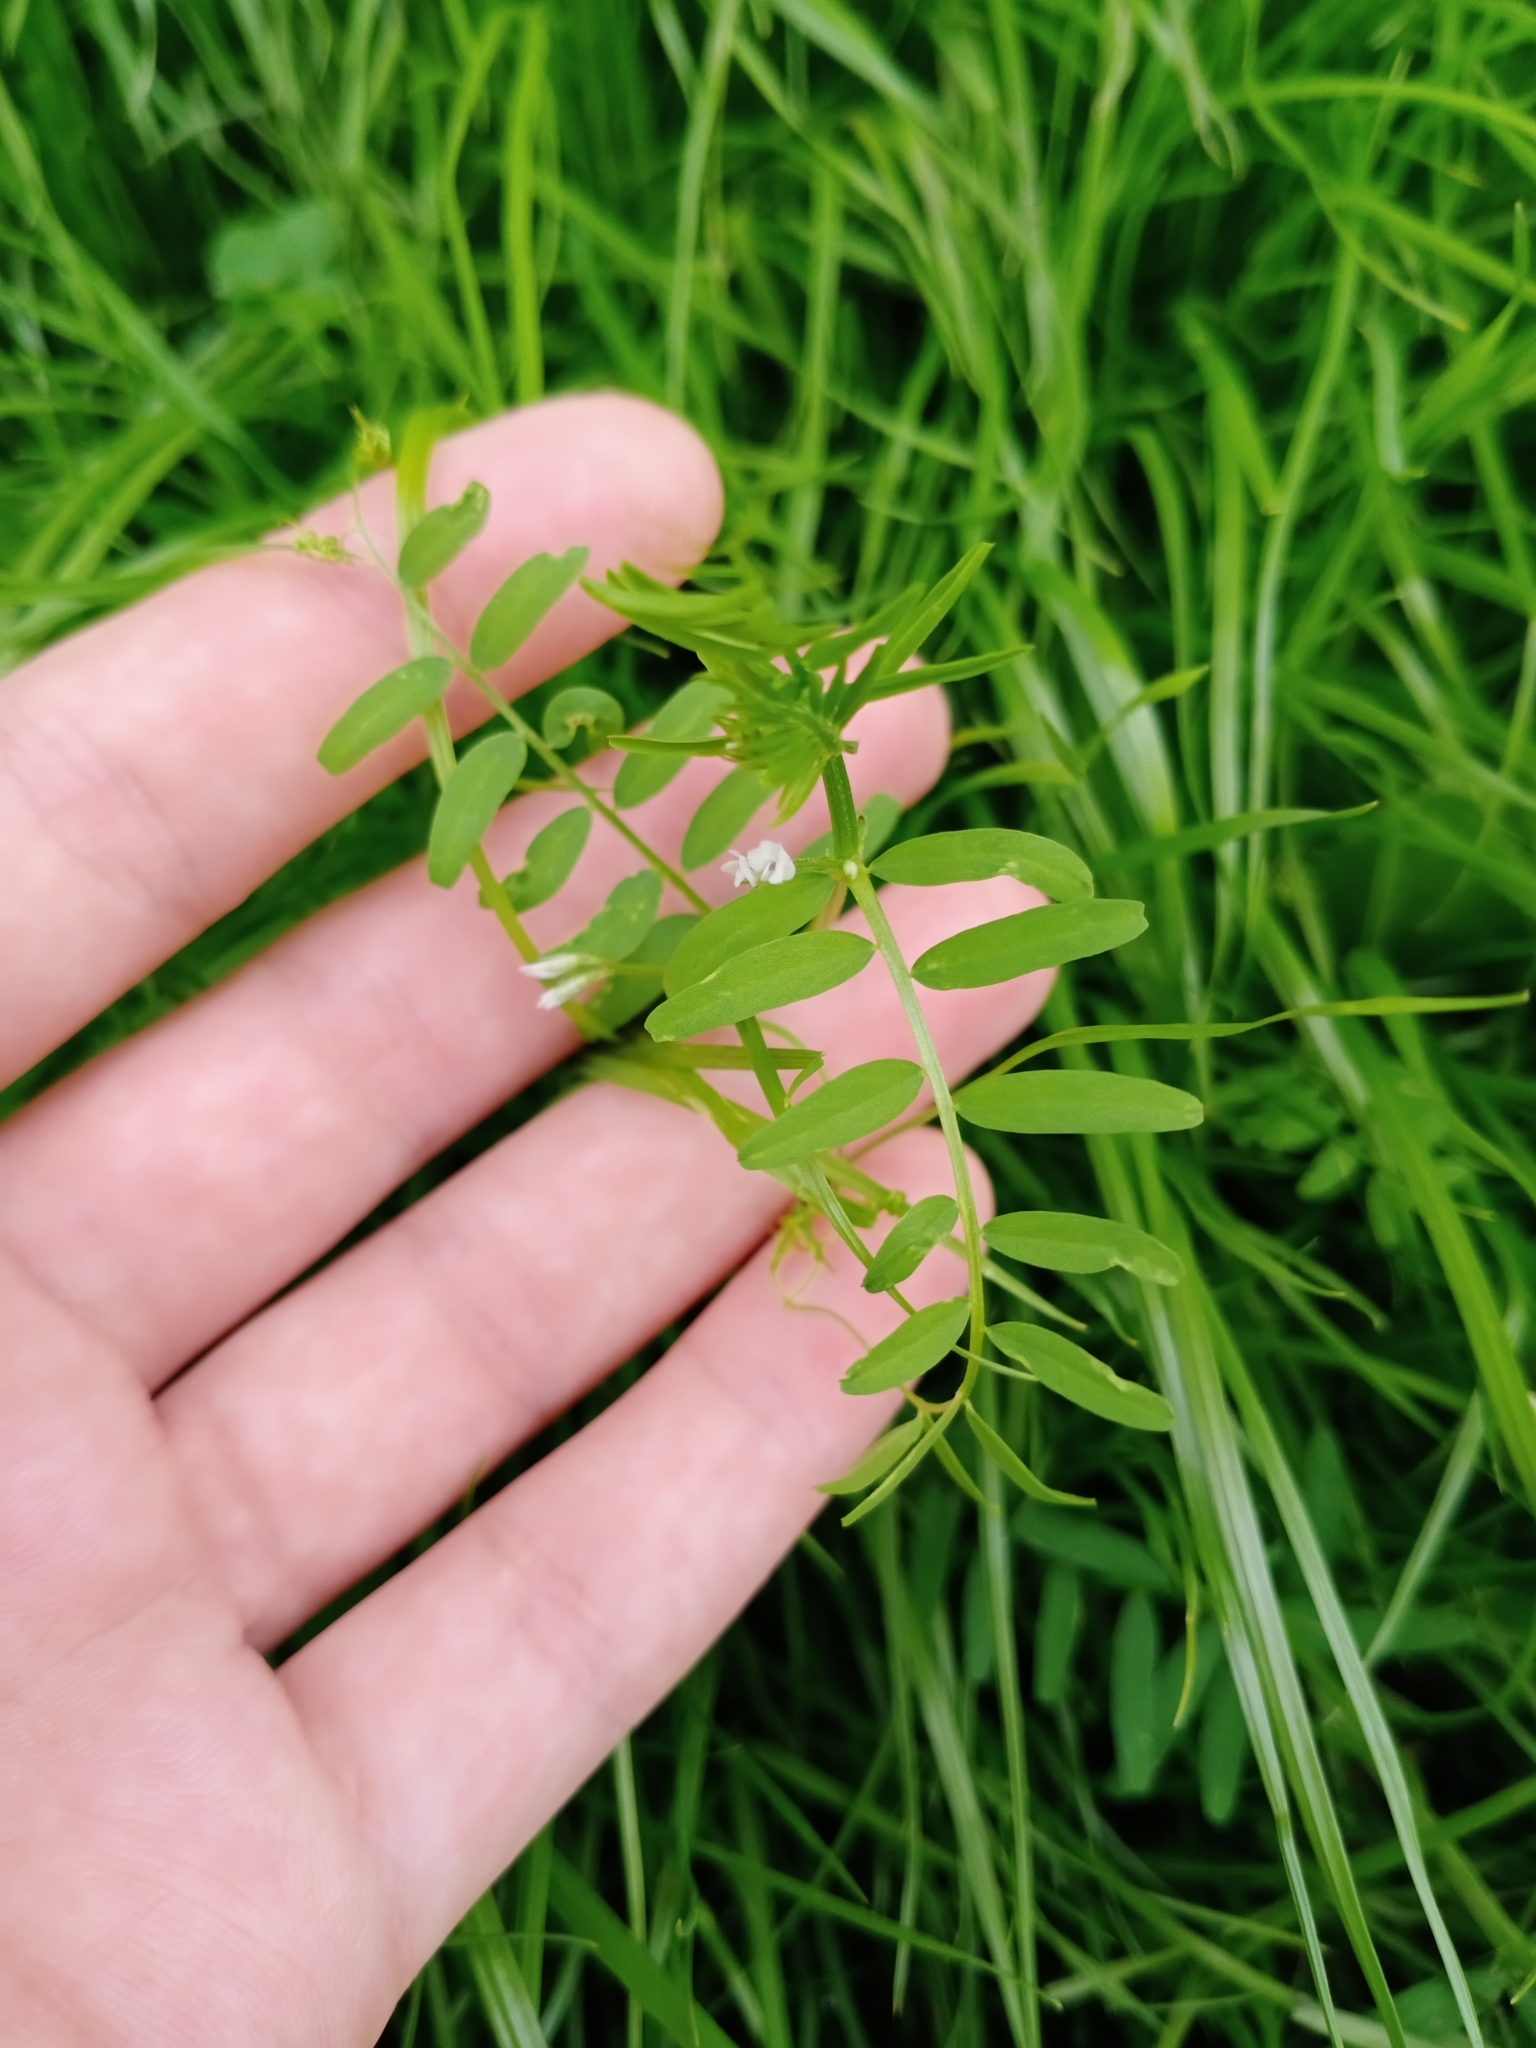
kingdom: Plantae
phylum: Tracheophyta
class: Magnoliopsida
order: Fabales
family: Fabaceae
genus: Vicia
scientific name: Vicia hirsuta
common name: Tiny vetch
